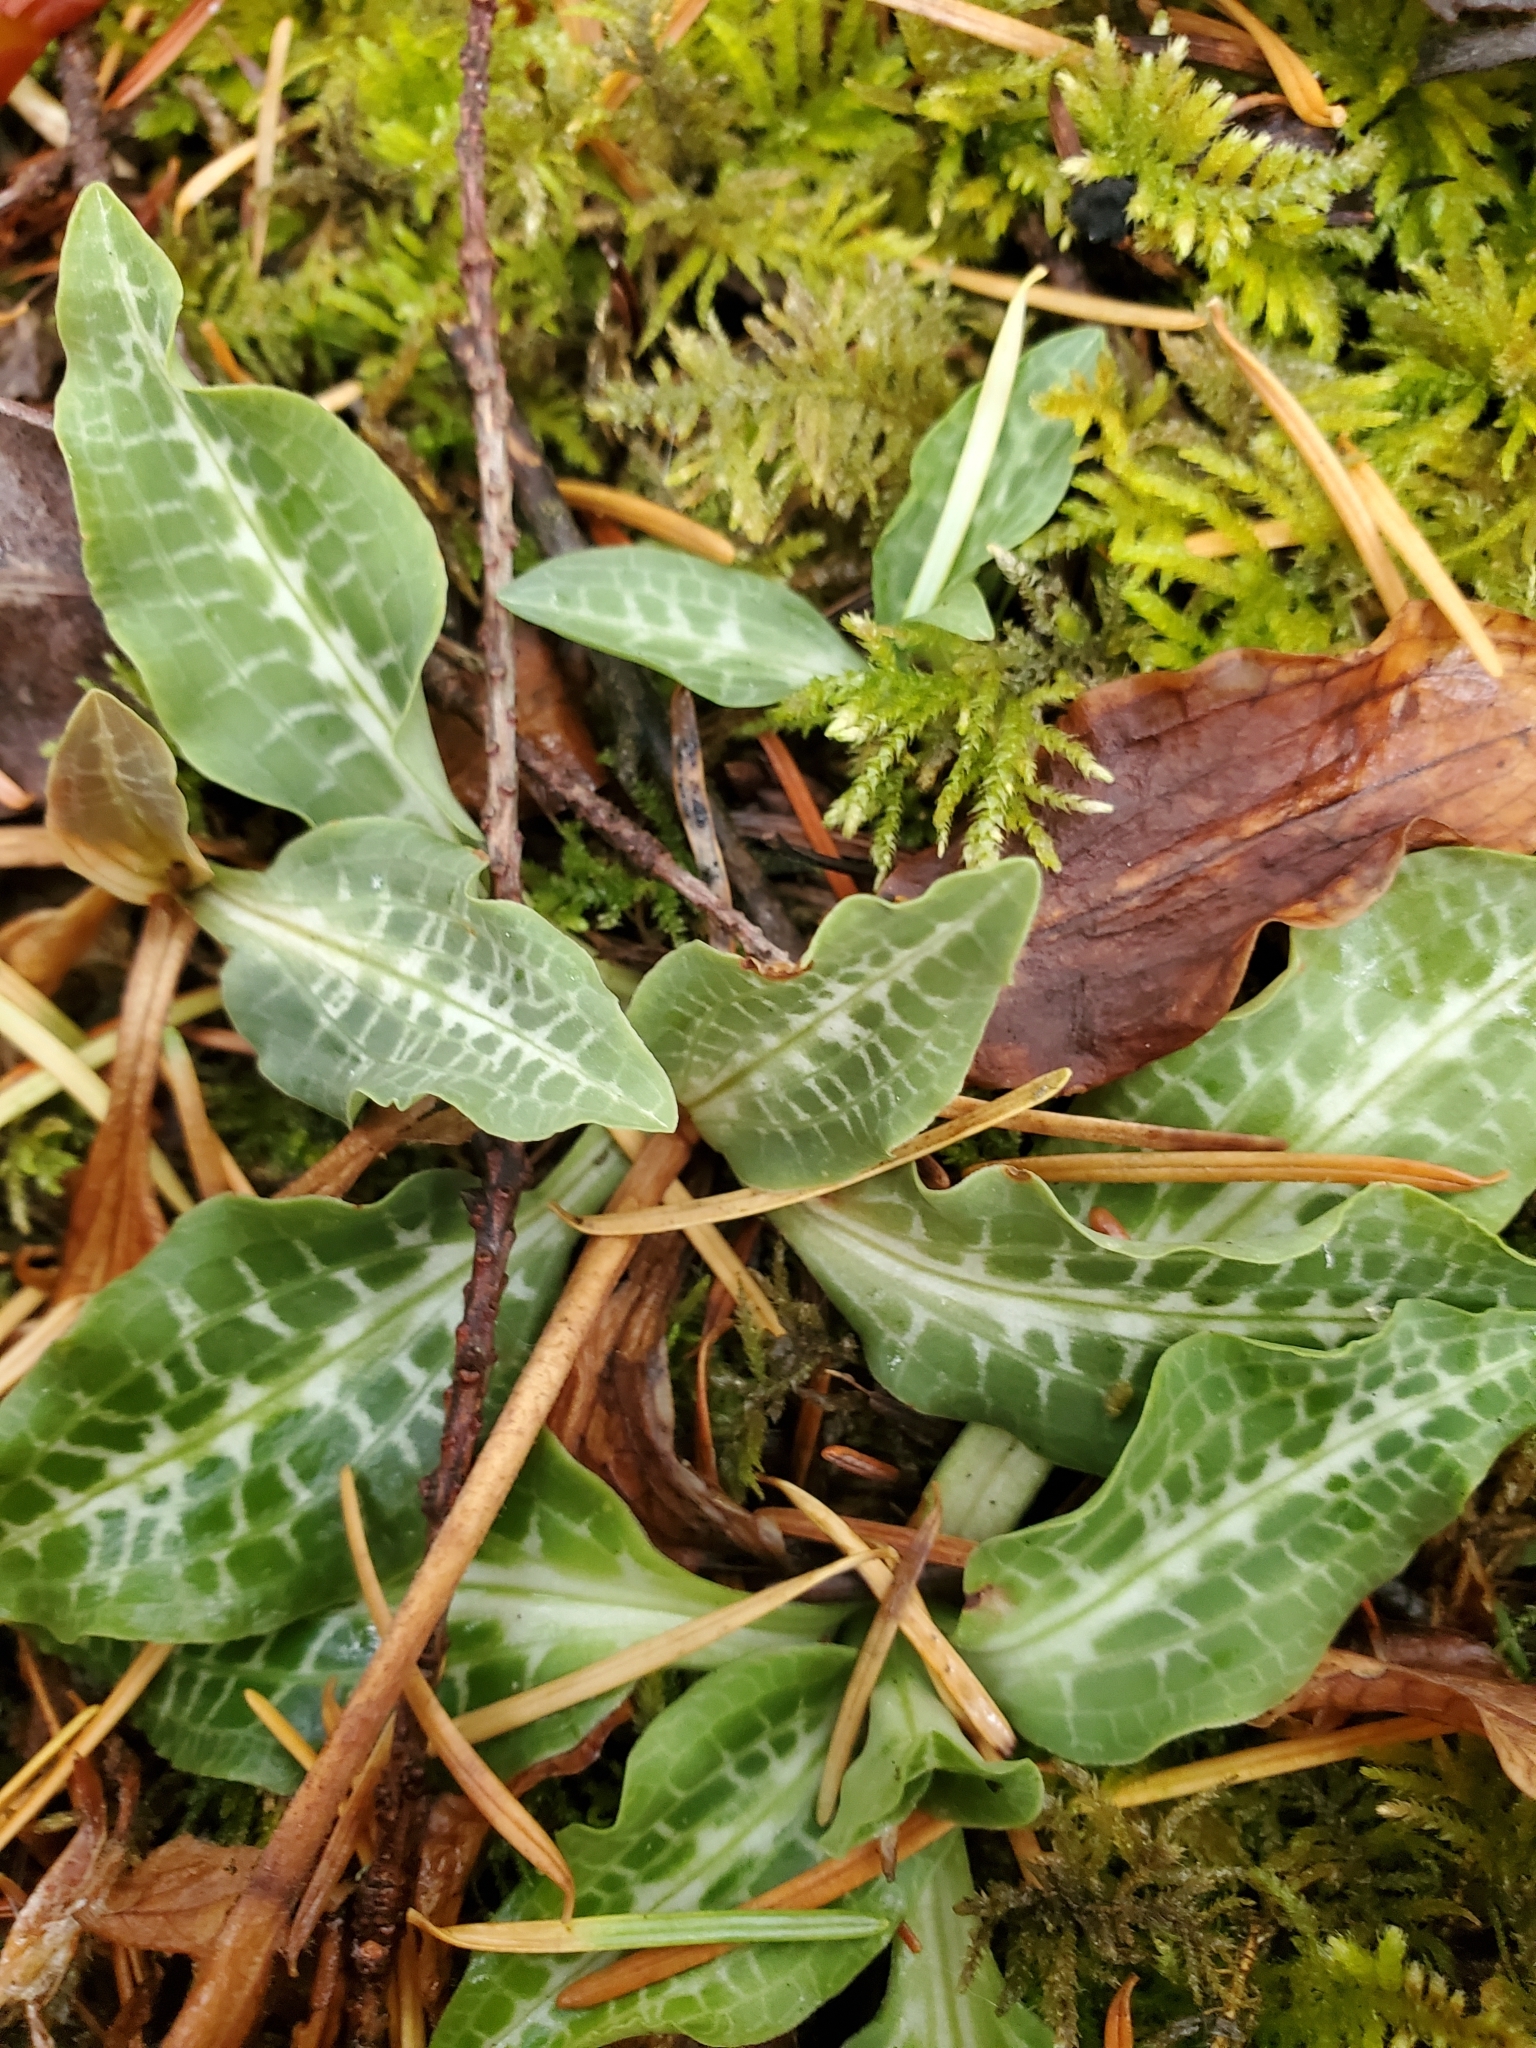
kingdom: Plantae
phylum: Tracheophyta
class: Liliopsida
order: Asparagales
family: Orchidaceae
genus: Goodyera
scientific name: Goodyera oblongifolia
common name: Giant rattlesnake-plantain
